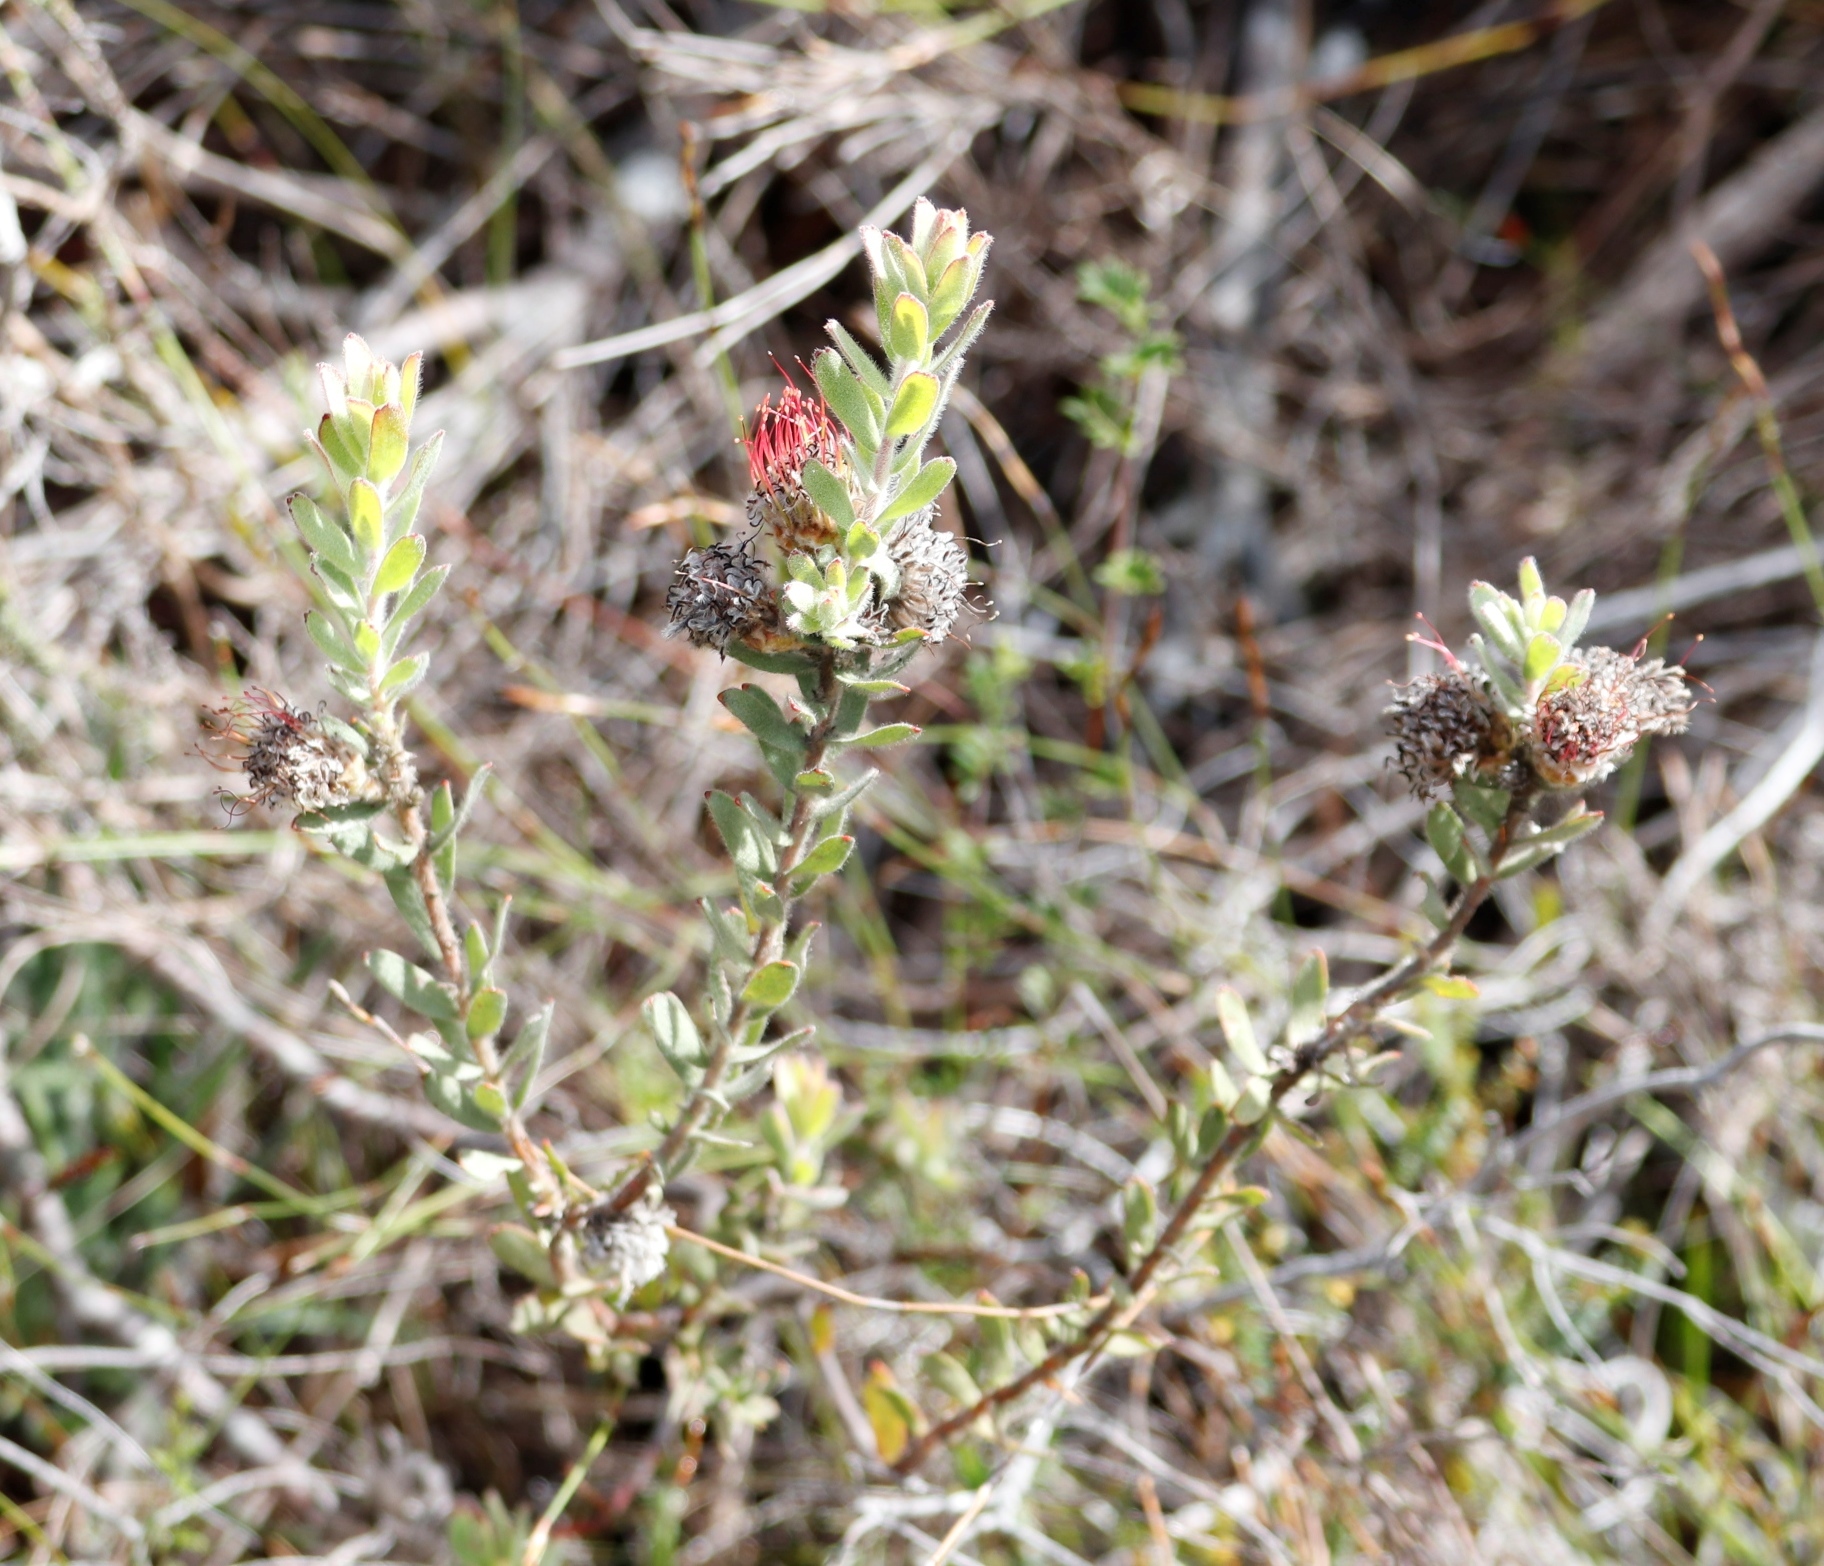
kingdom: Plantae
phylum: Tracheophyta
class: Magnoliopsida
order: Proteales
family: Proteaceae
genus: Leucospermum
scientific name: Leucospermum calligerum
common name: Arid pincushion
